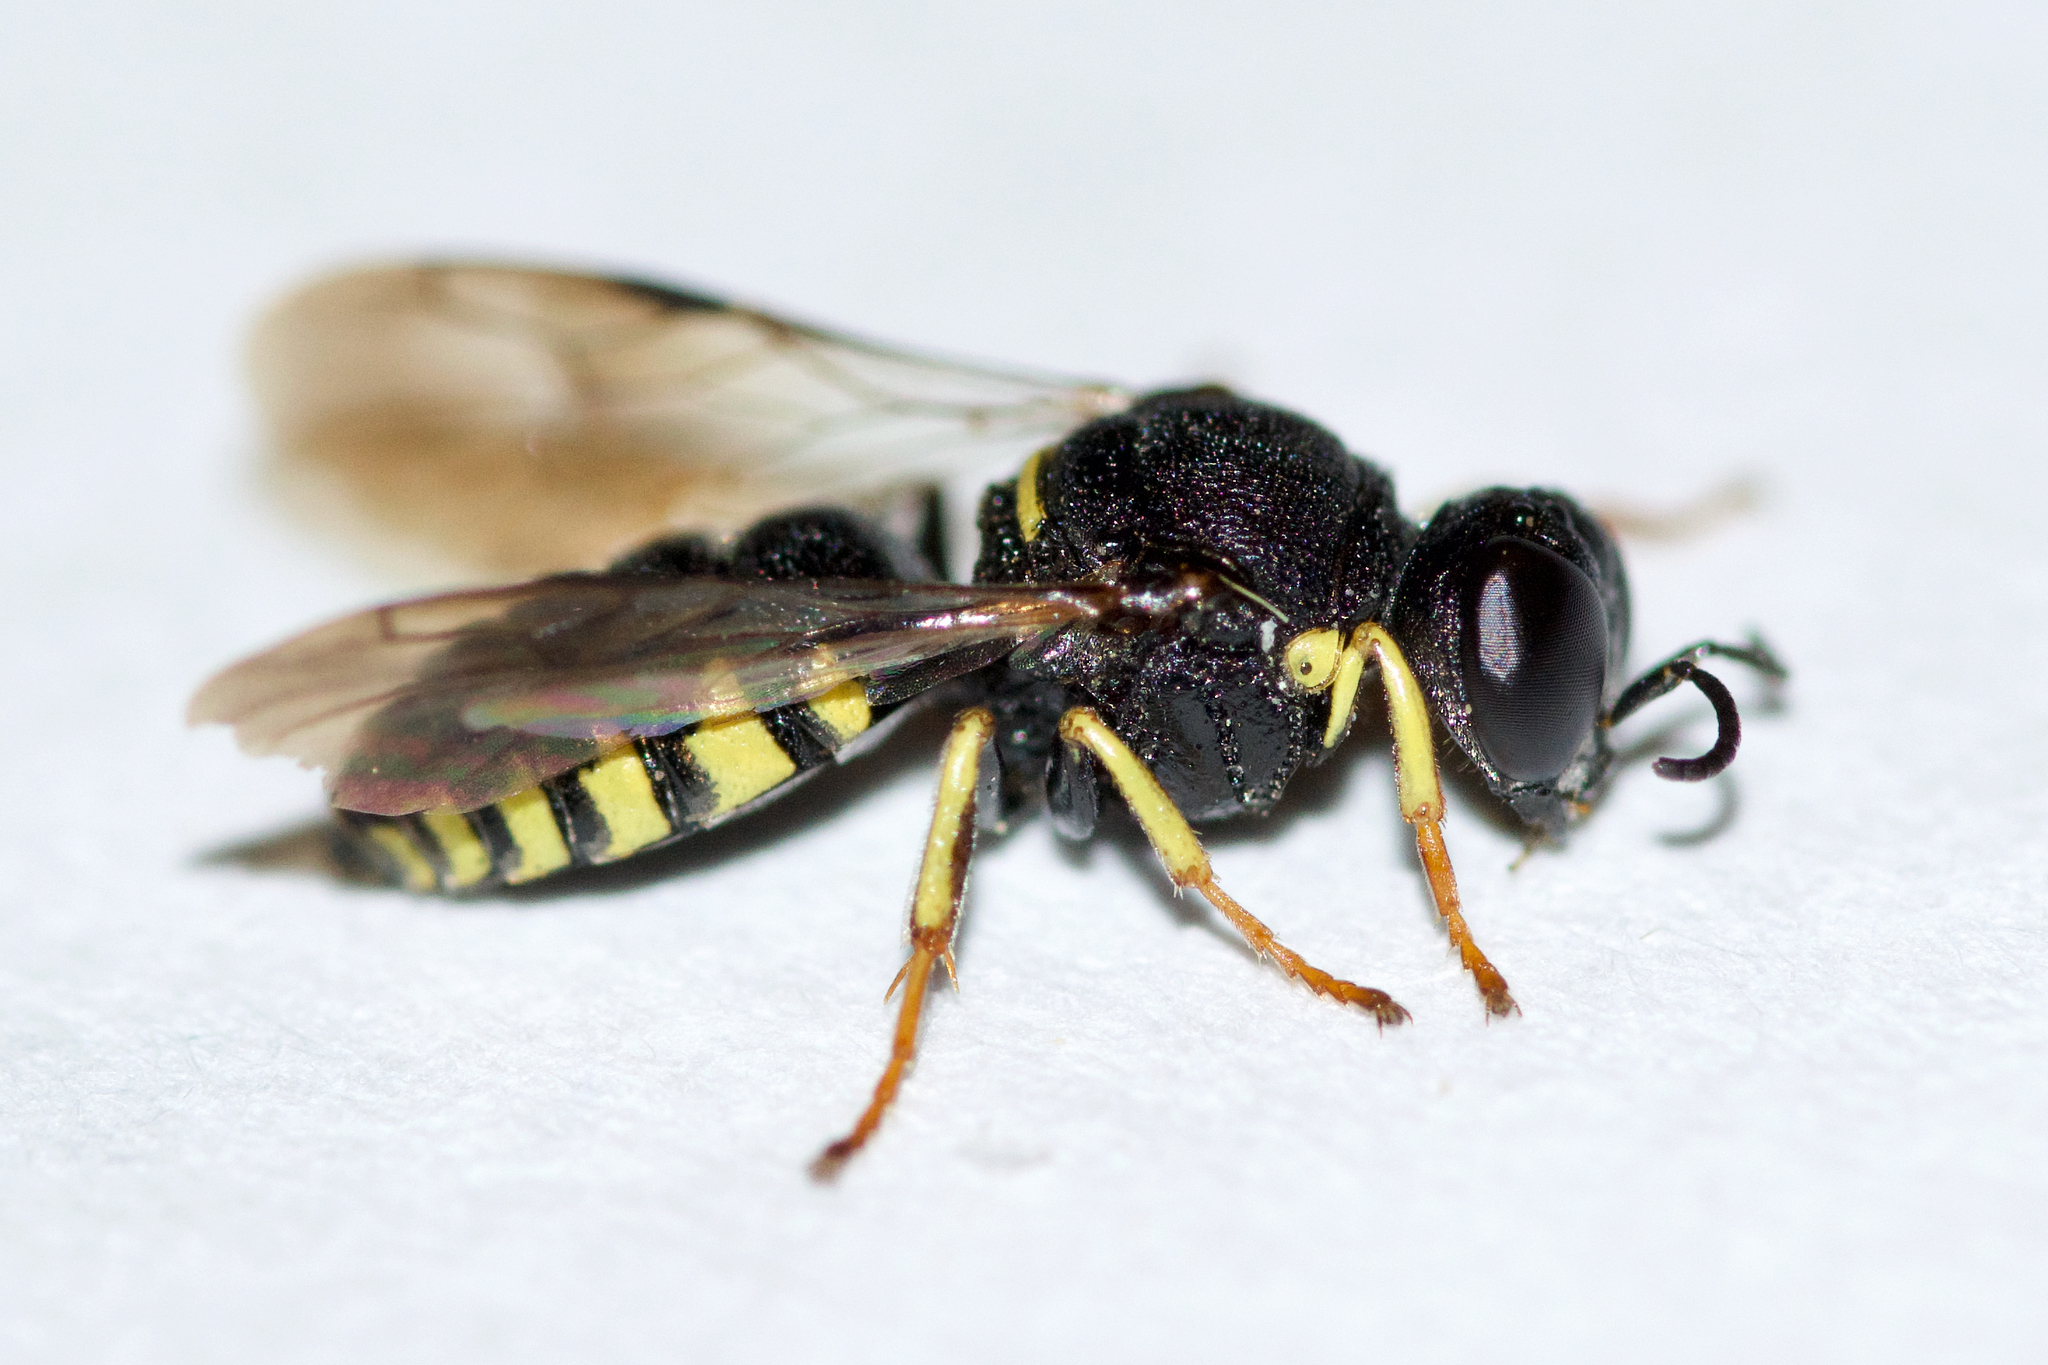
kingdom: Animalia
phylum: Arthropoda
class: Insecta
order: Hymenoptera
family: Crabronidae
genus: Anacrabro
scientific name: Anacrabro ocellatus
